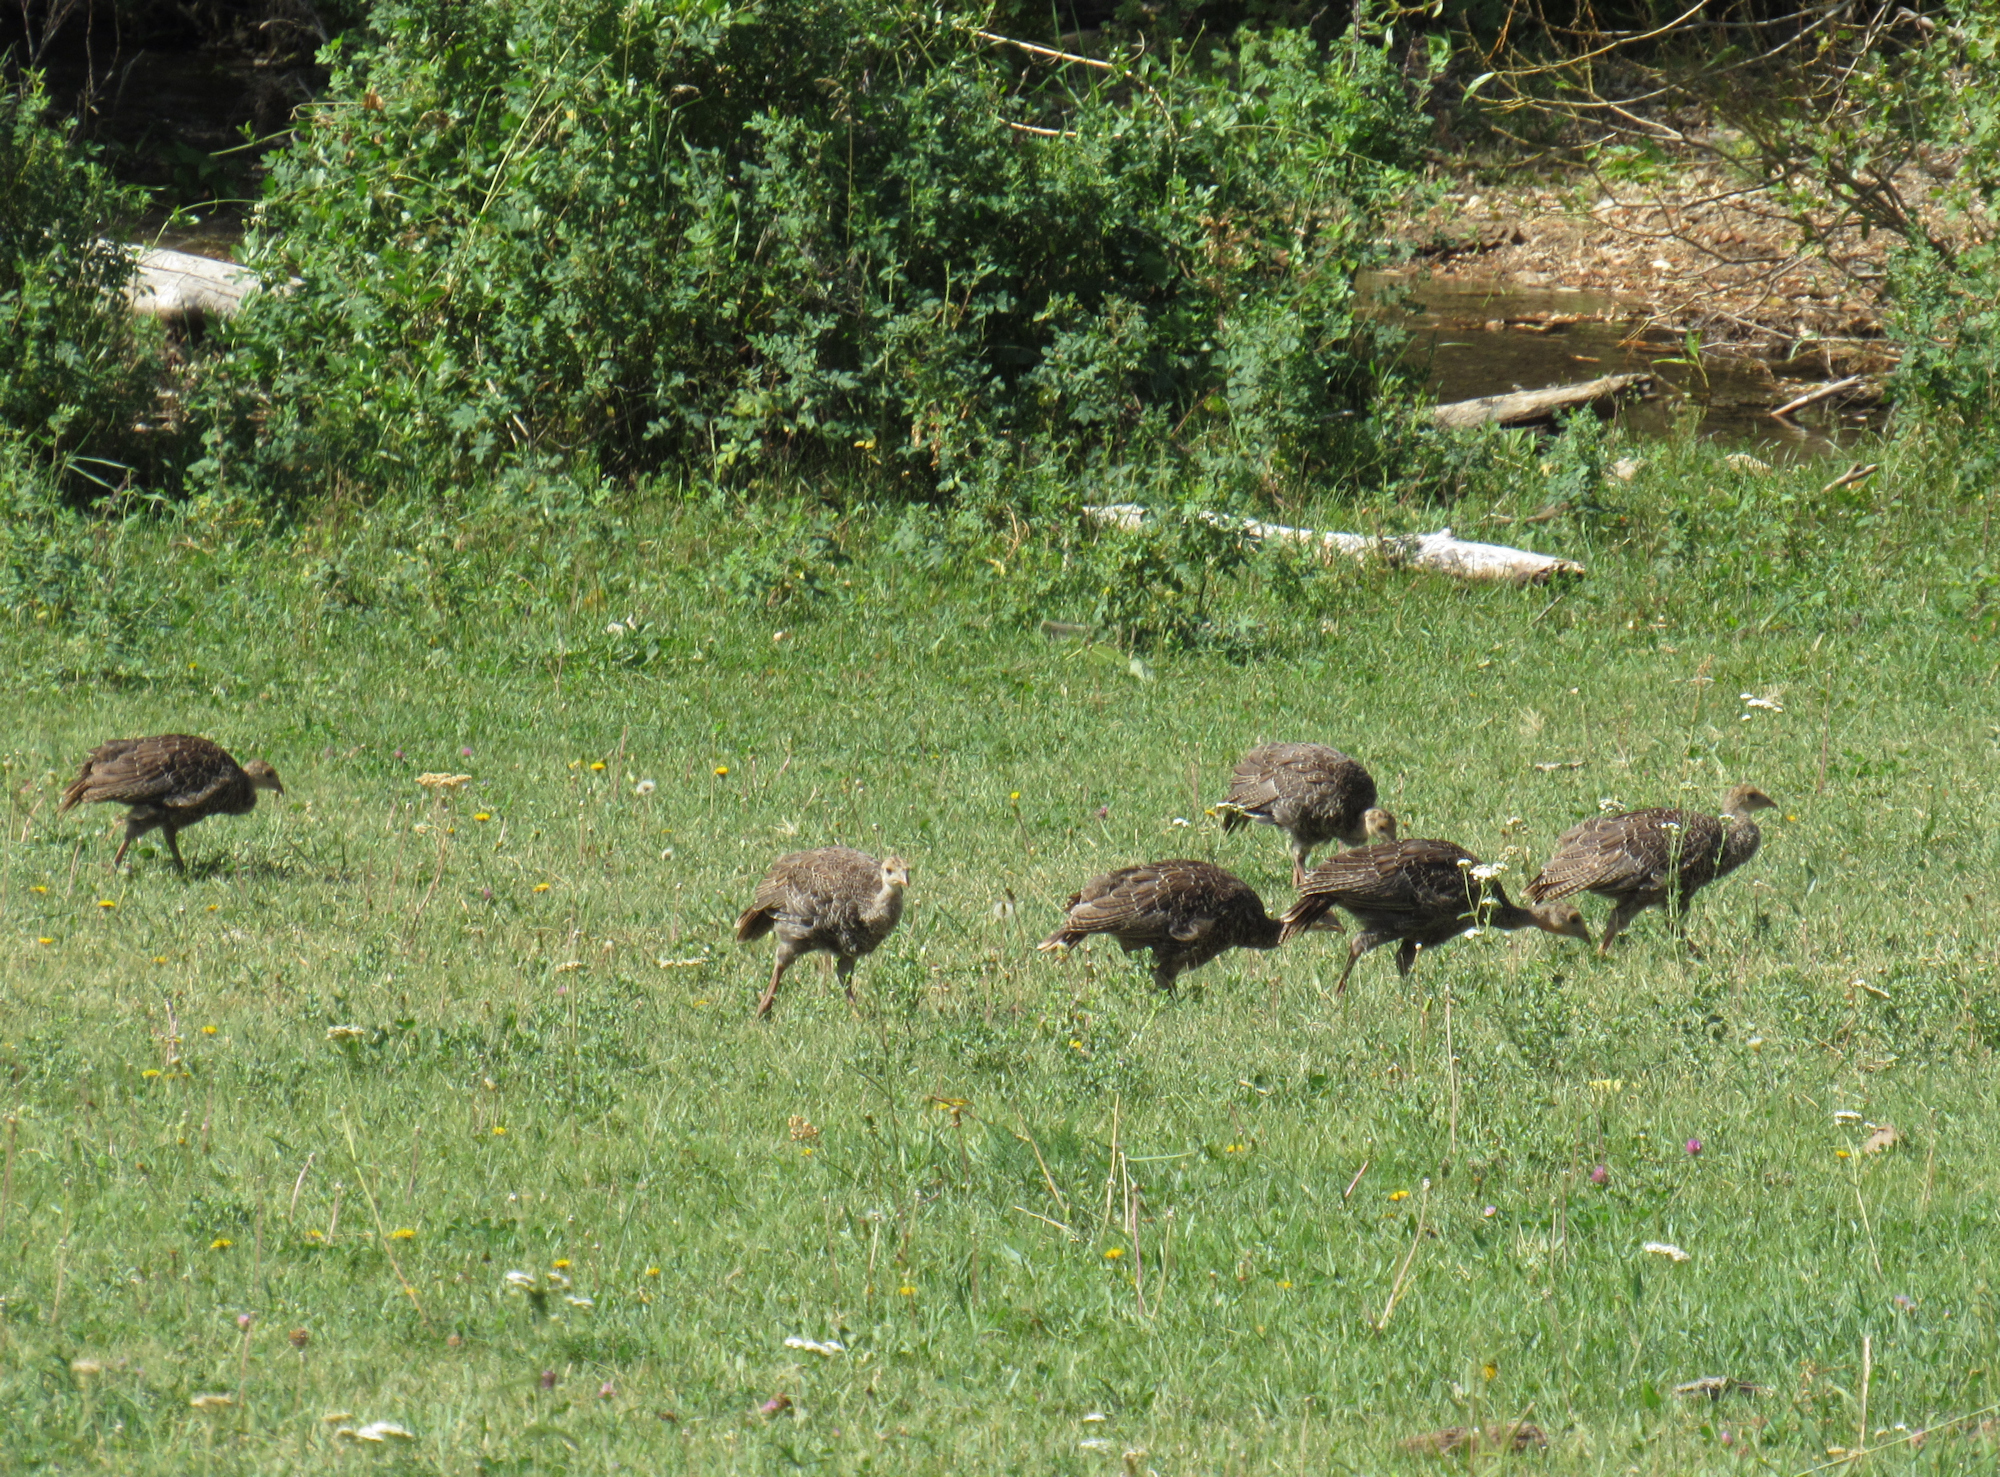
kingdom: Animalia
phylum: Chordata
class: Aves
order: Galliformes
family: Phasianidae
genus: Meleagris
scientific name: Meleagris gallopavo
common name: Wild turkey
